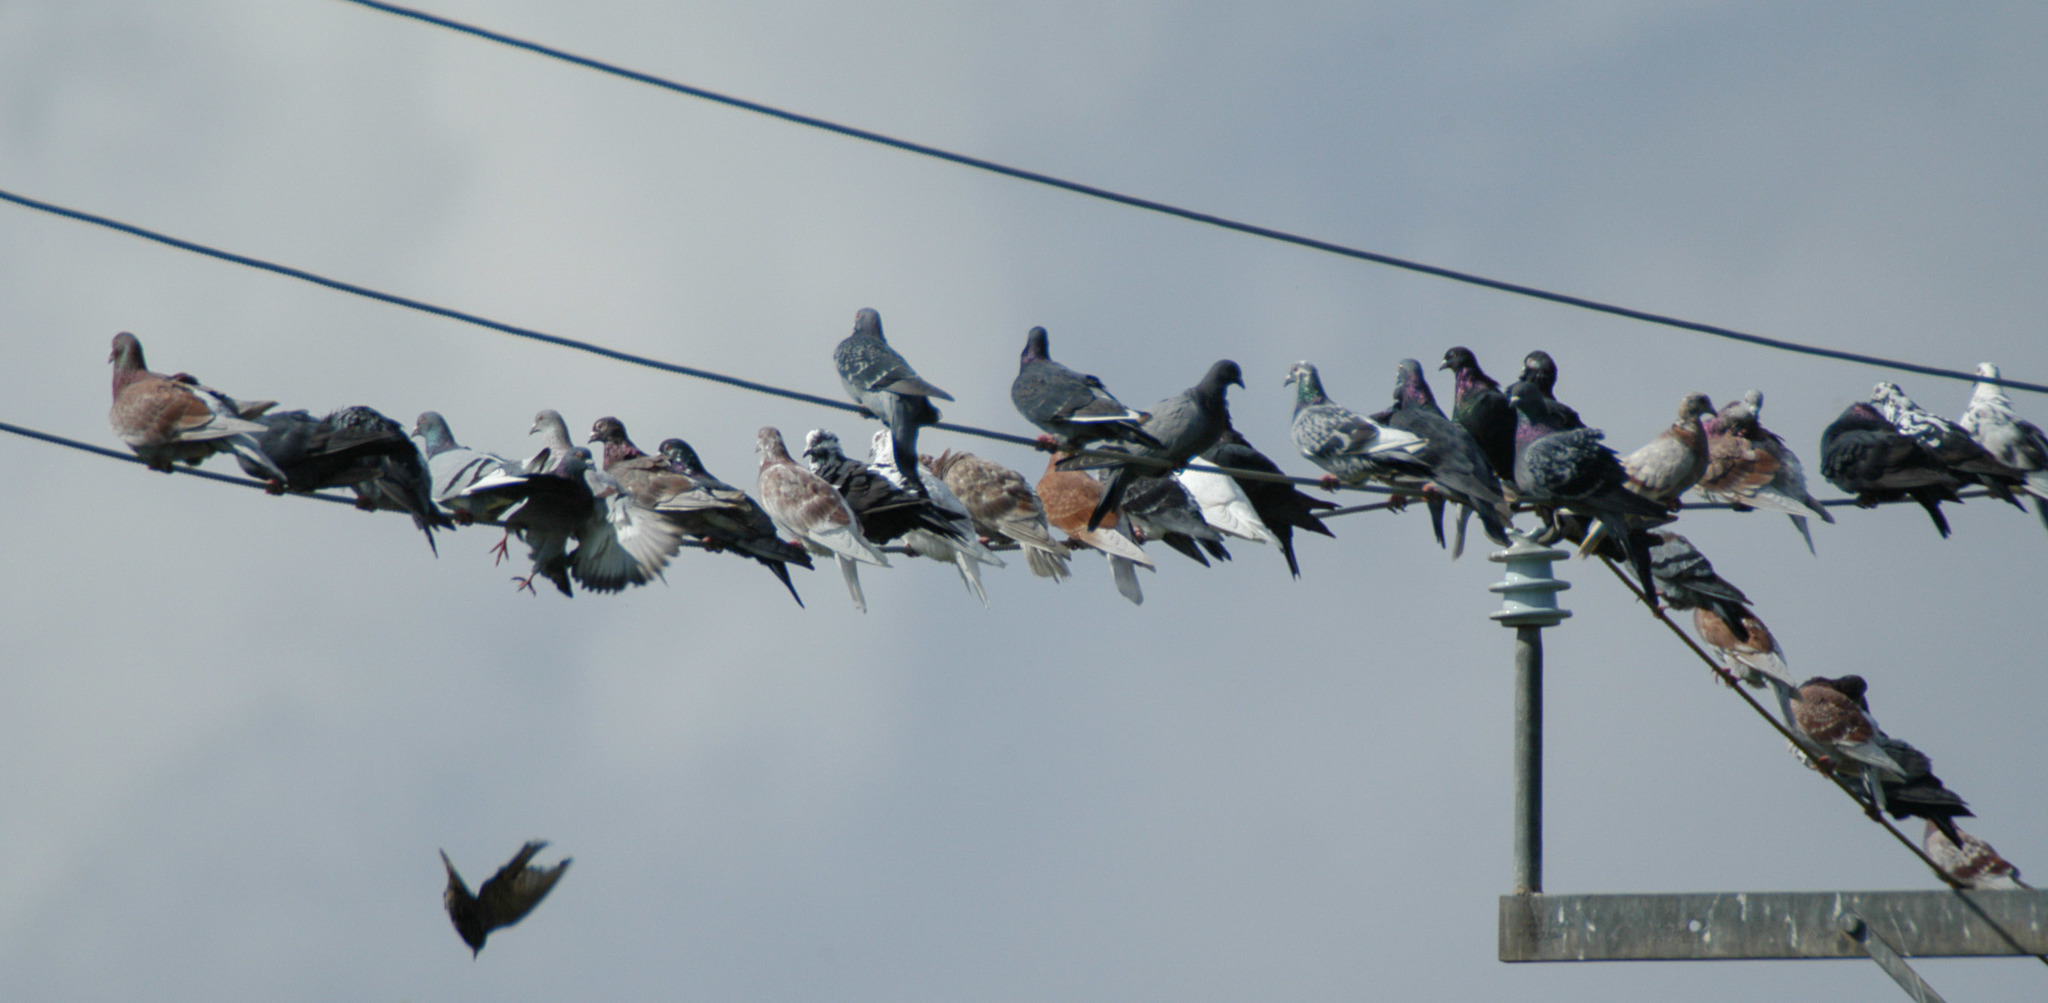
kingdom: Animalia
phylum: Chordata
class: Aves
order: Columbiformes
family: Columbidae
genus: Columba
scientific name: Columba livia
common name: Rock pigeon
